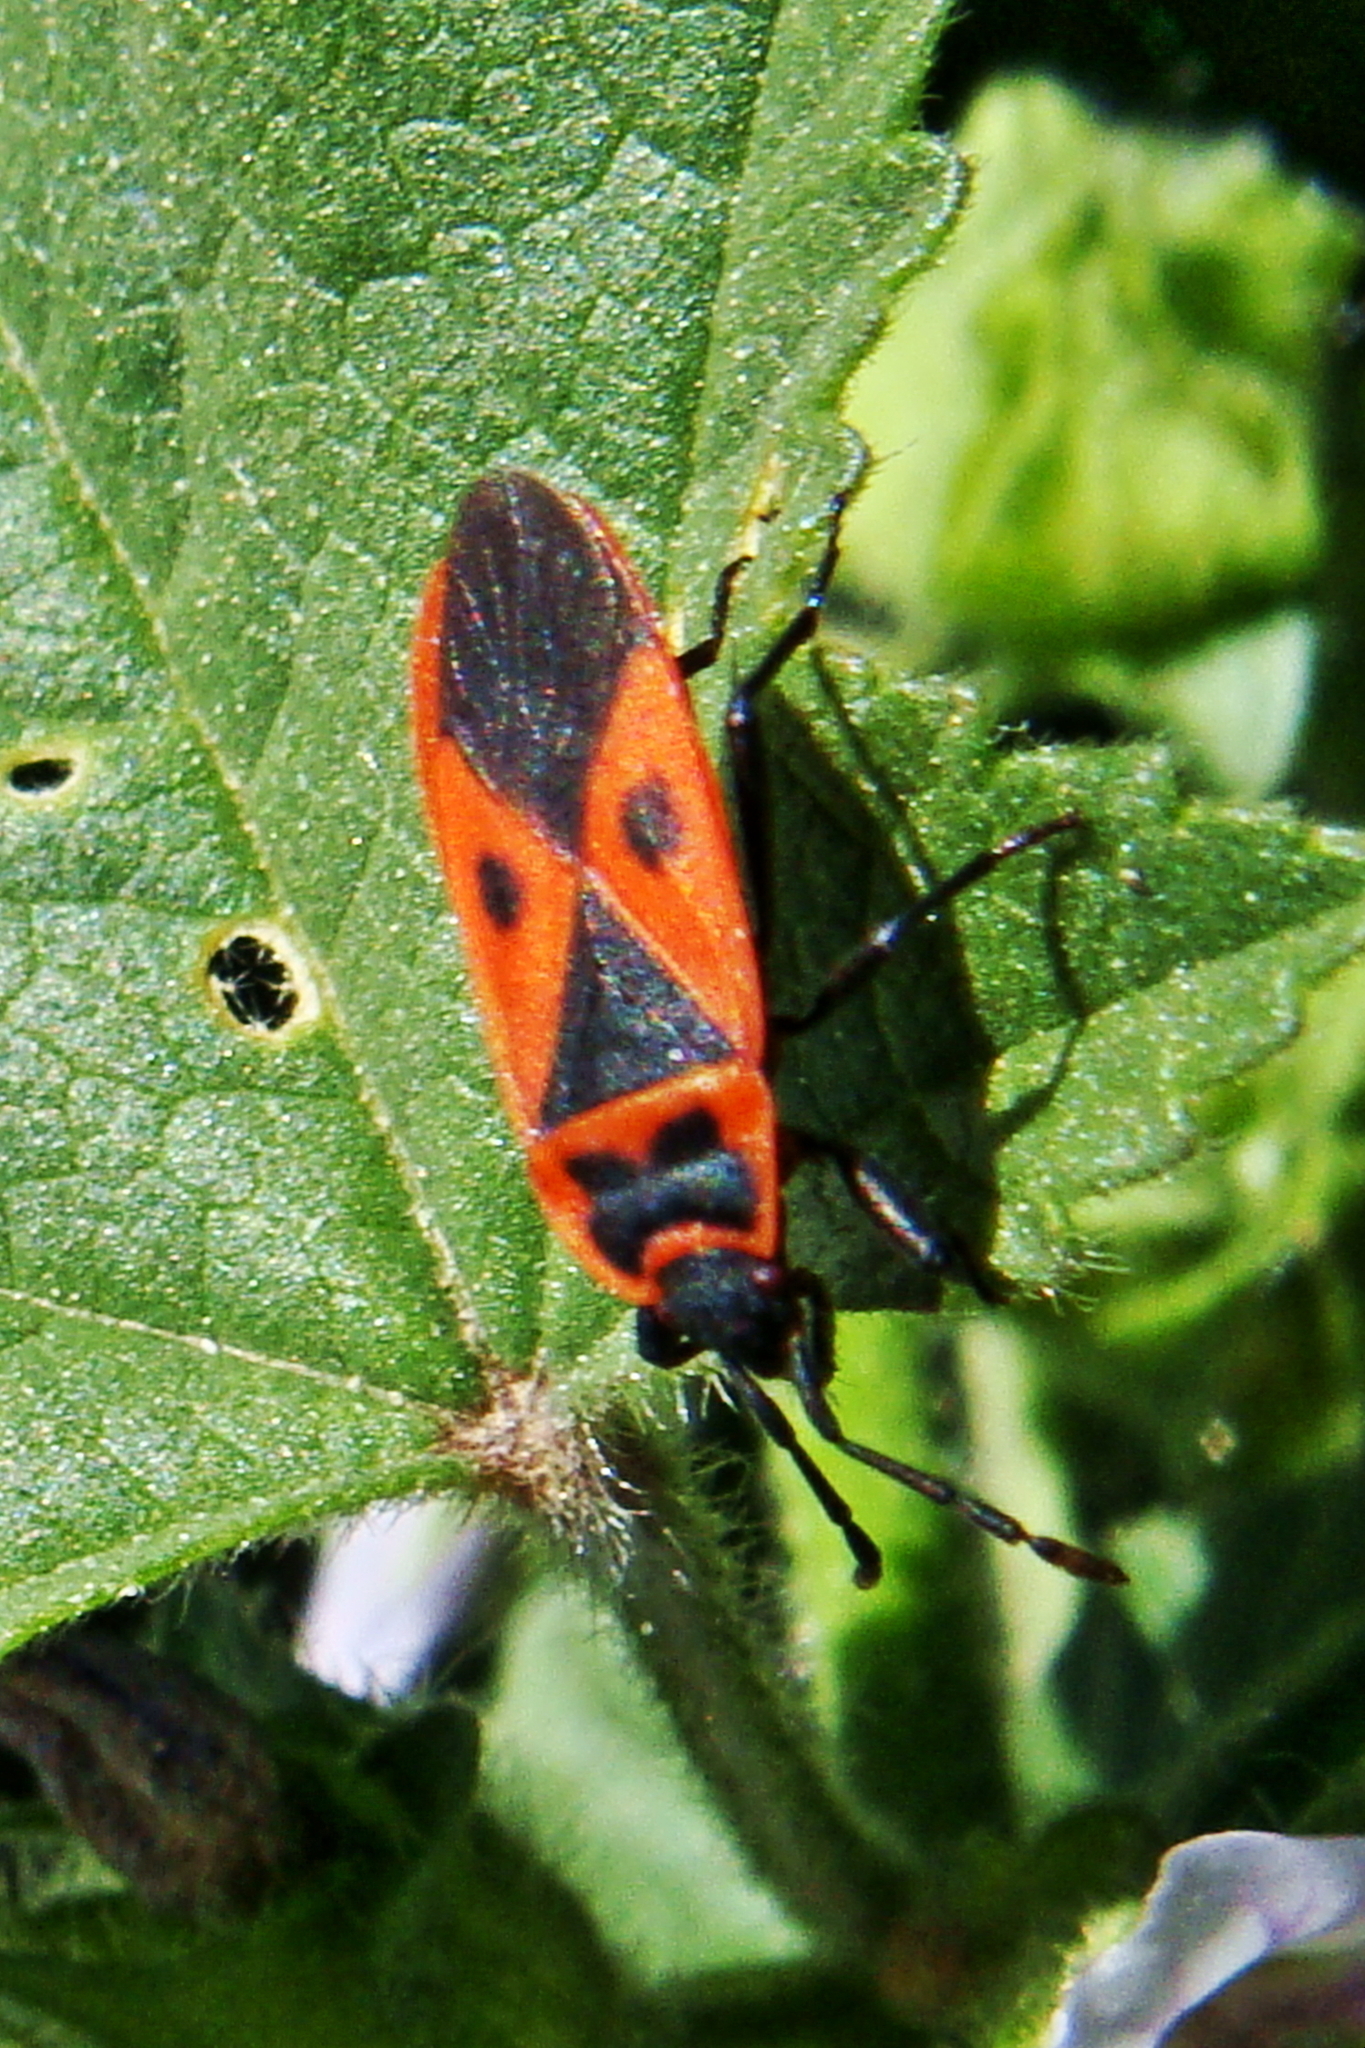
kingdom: Animalia
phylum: Arthropoda
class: Insecta
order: Hemiptera
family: Pyrrhocoridae
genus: Scantius
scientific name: Scantius aegyptius
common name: Red bug
